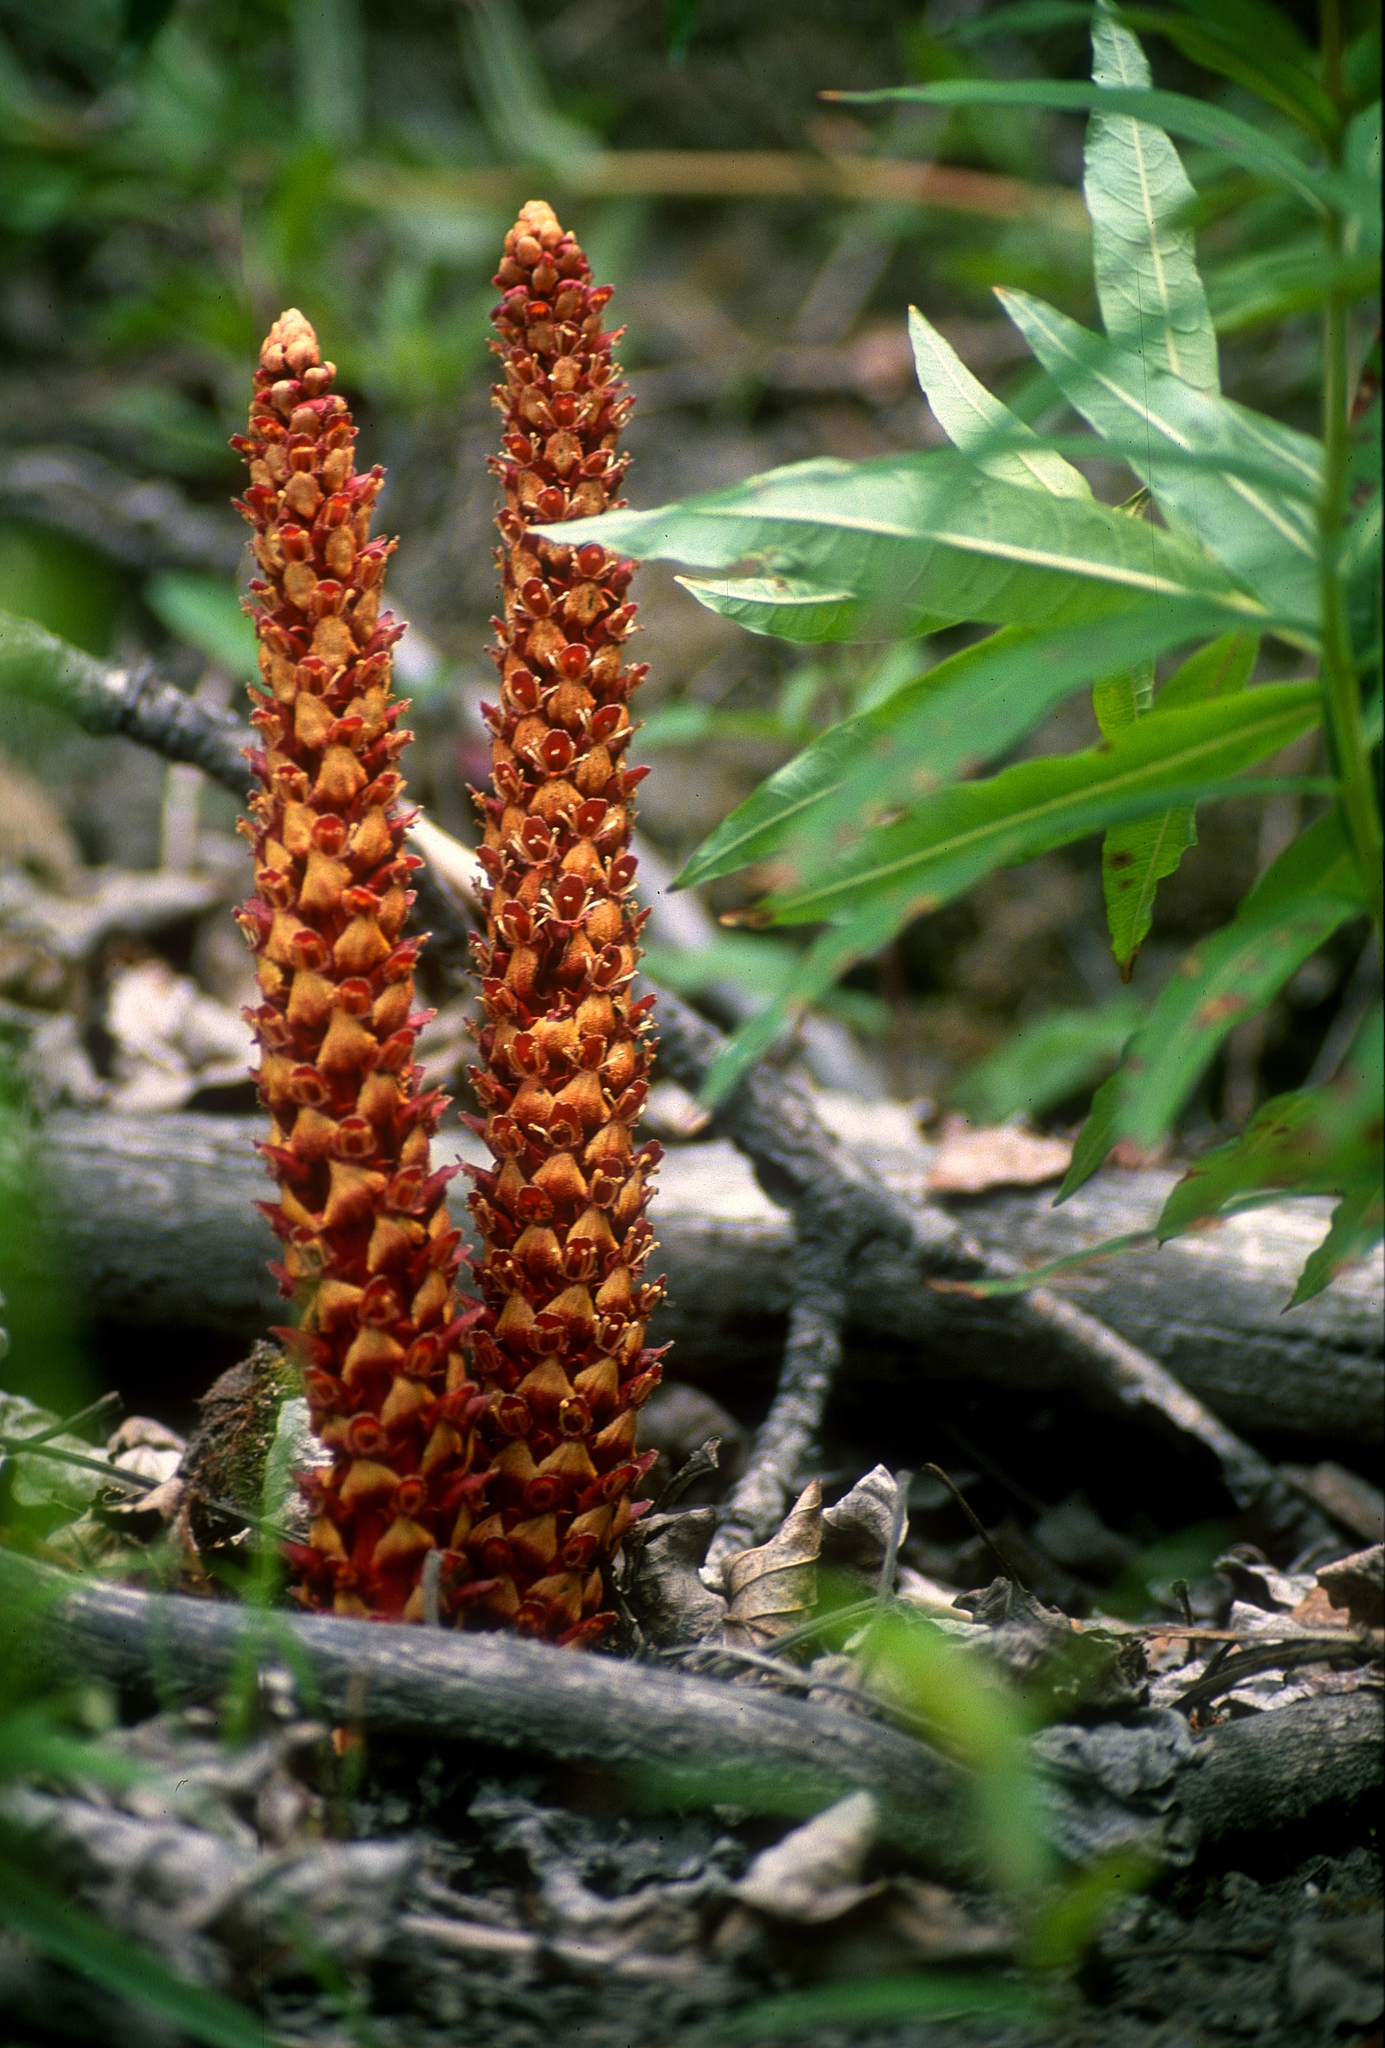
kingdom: Plantae
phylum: Tracheophyta
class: Magnoliopsida
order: Lamiales
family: Orobanchaceae
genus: Boschniakia
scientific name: Boschniakia rossica
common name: Poque
